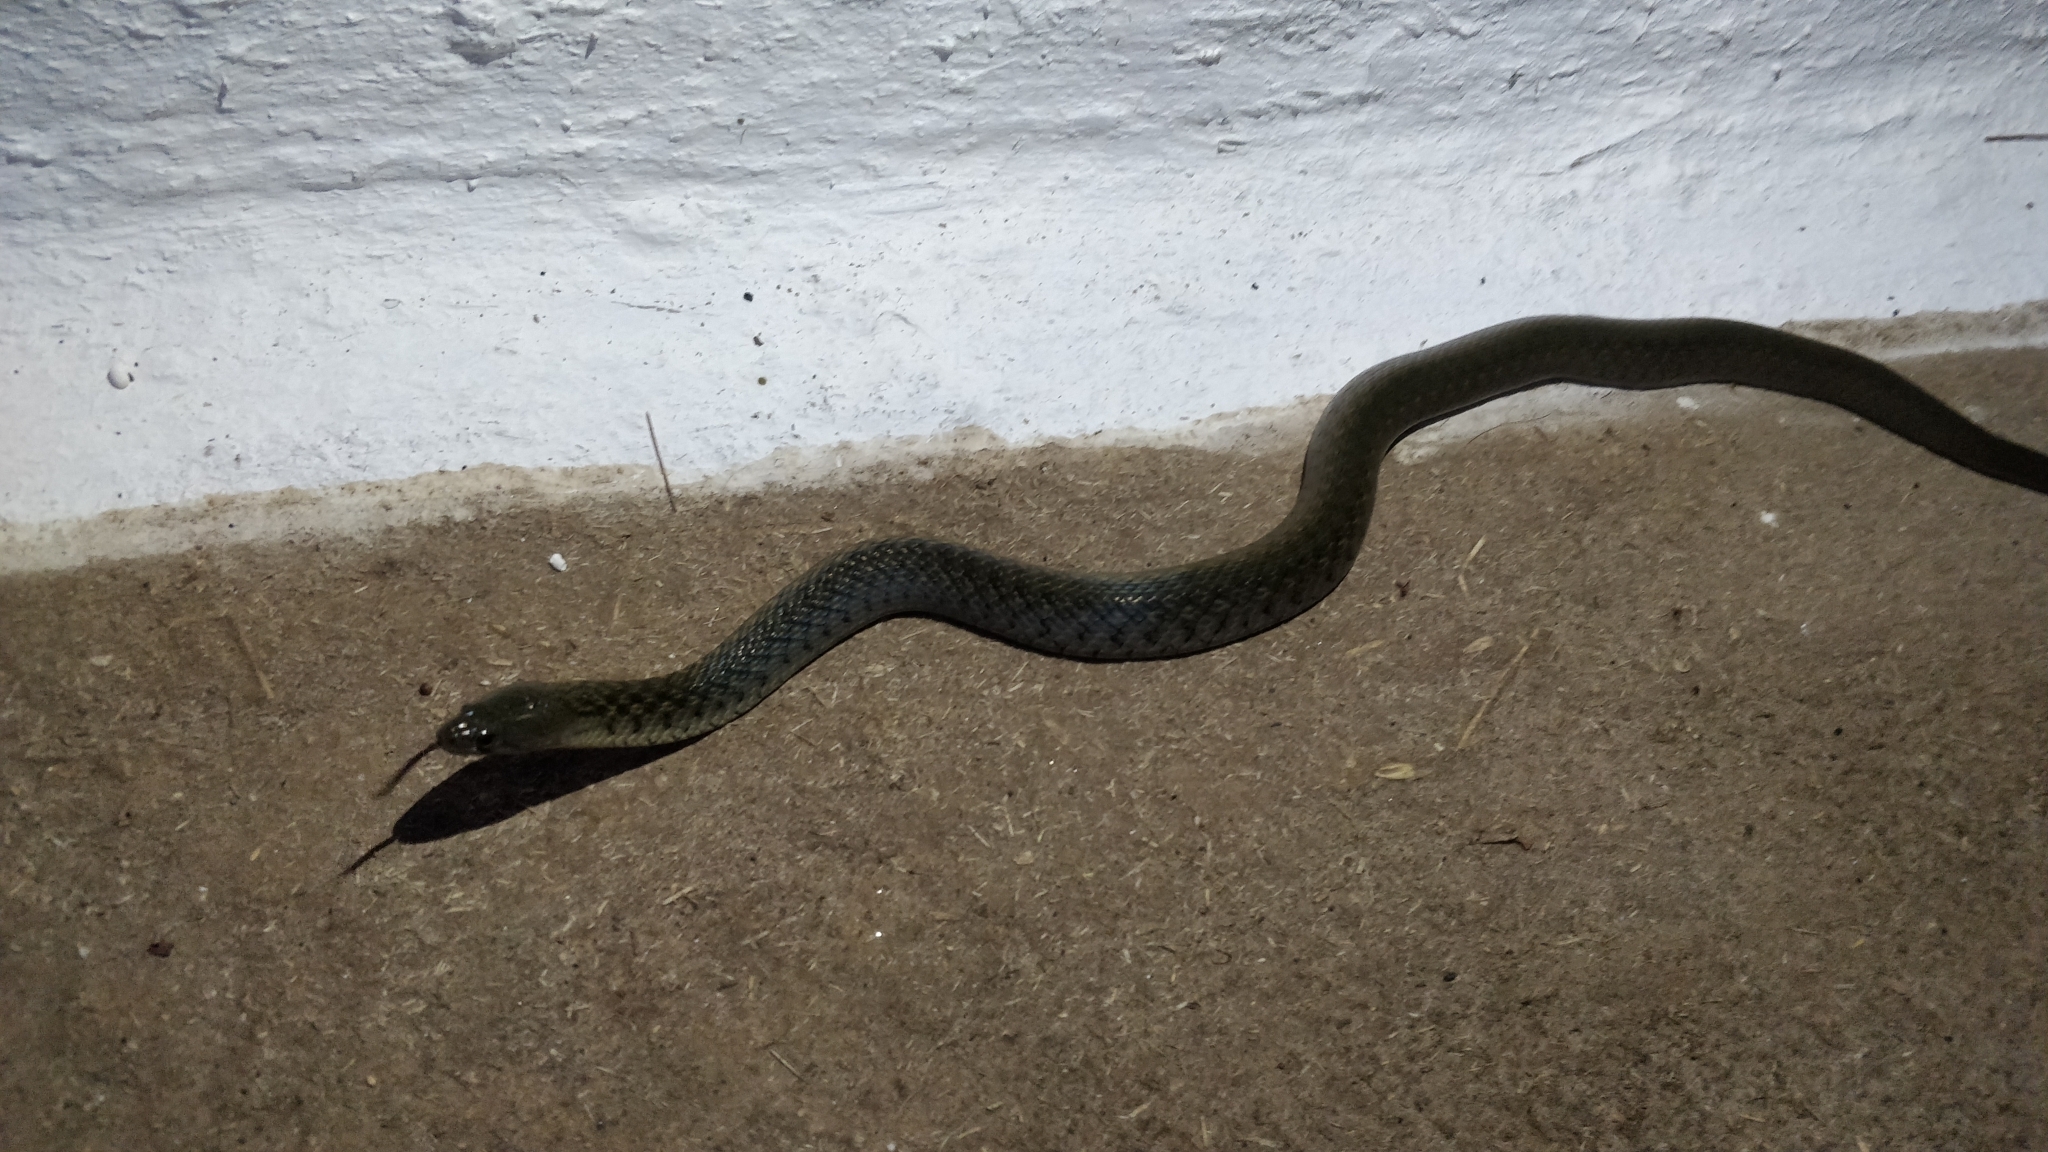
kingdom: Animalia
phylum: Chordata
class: Squamata
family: Colubridae
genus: Fowlea
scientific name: Fowlea piscator
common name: Asiatic water snake
